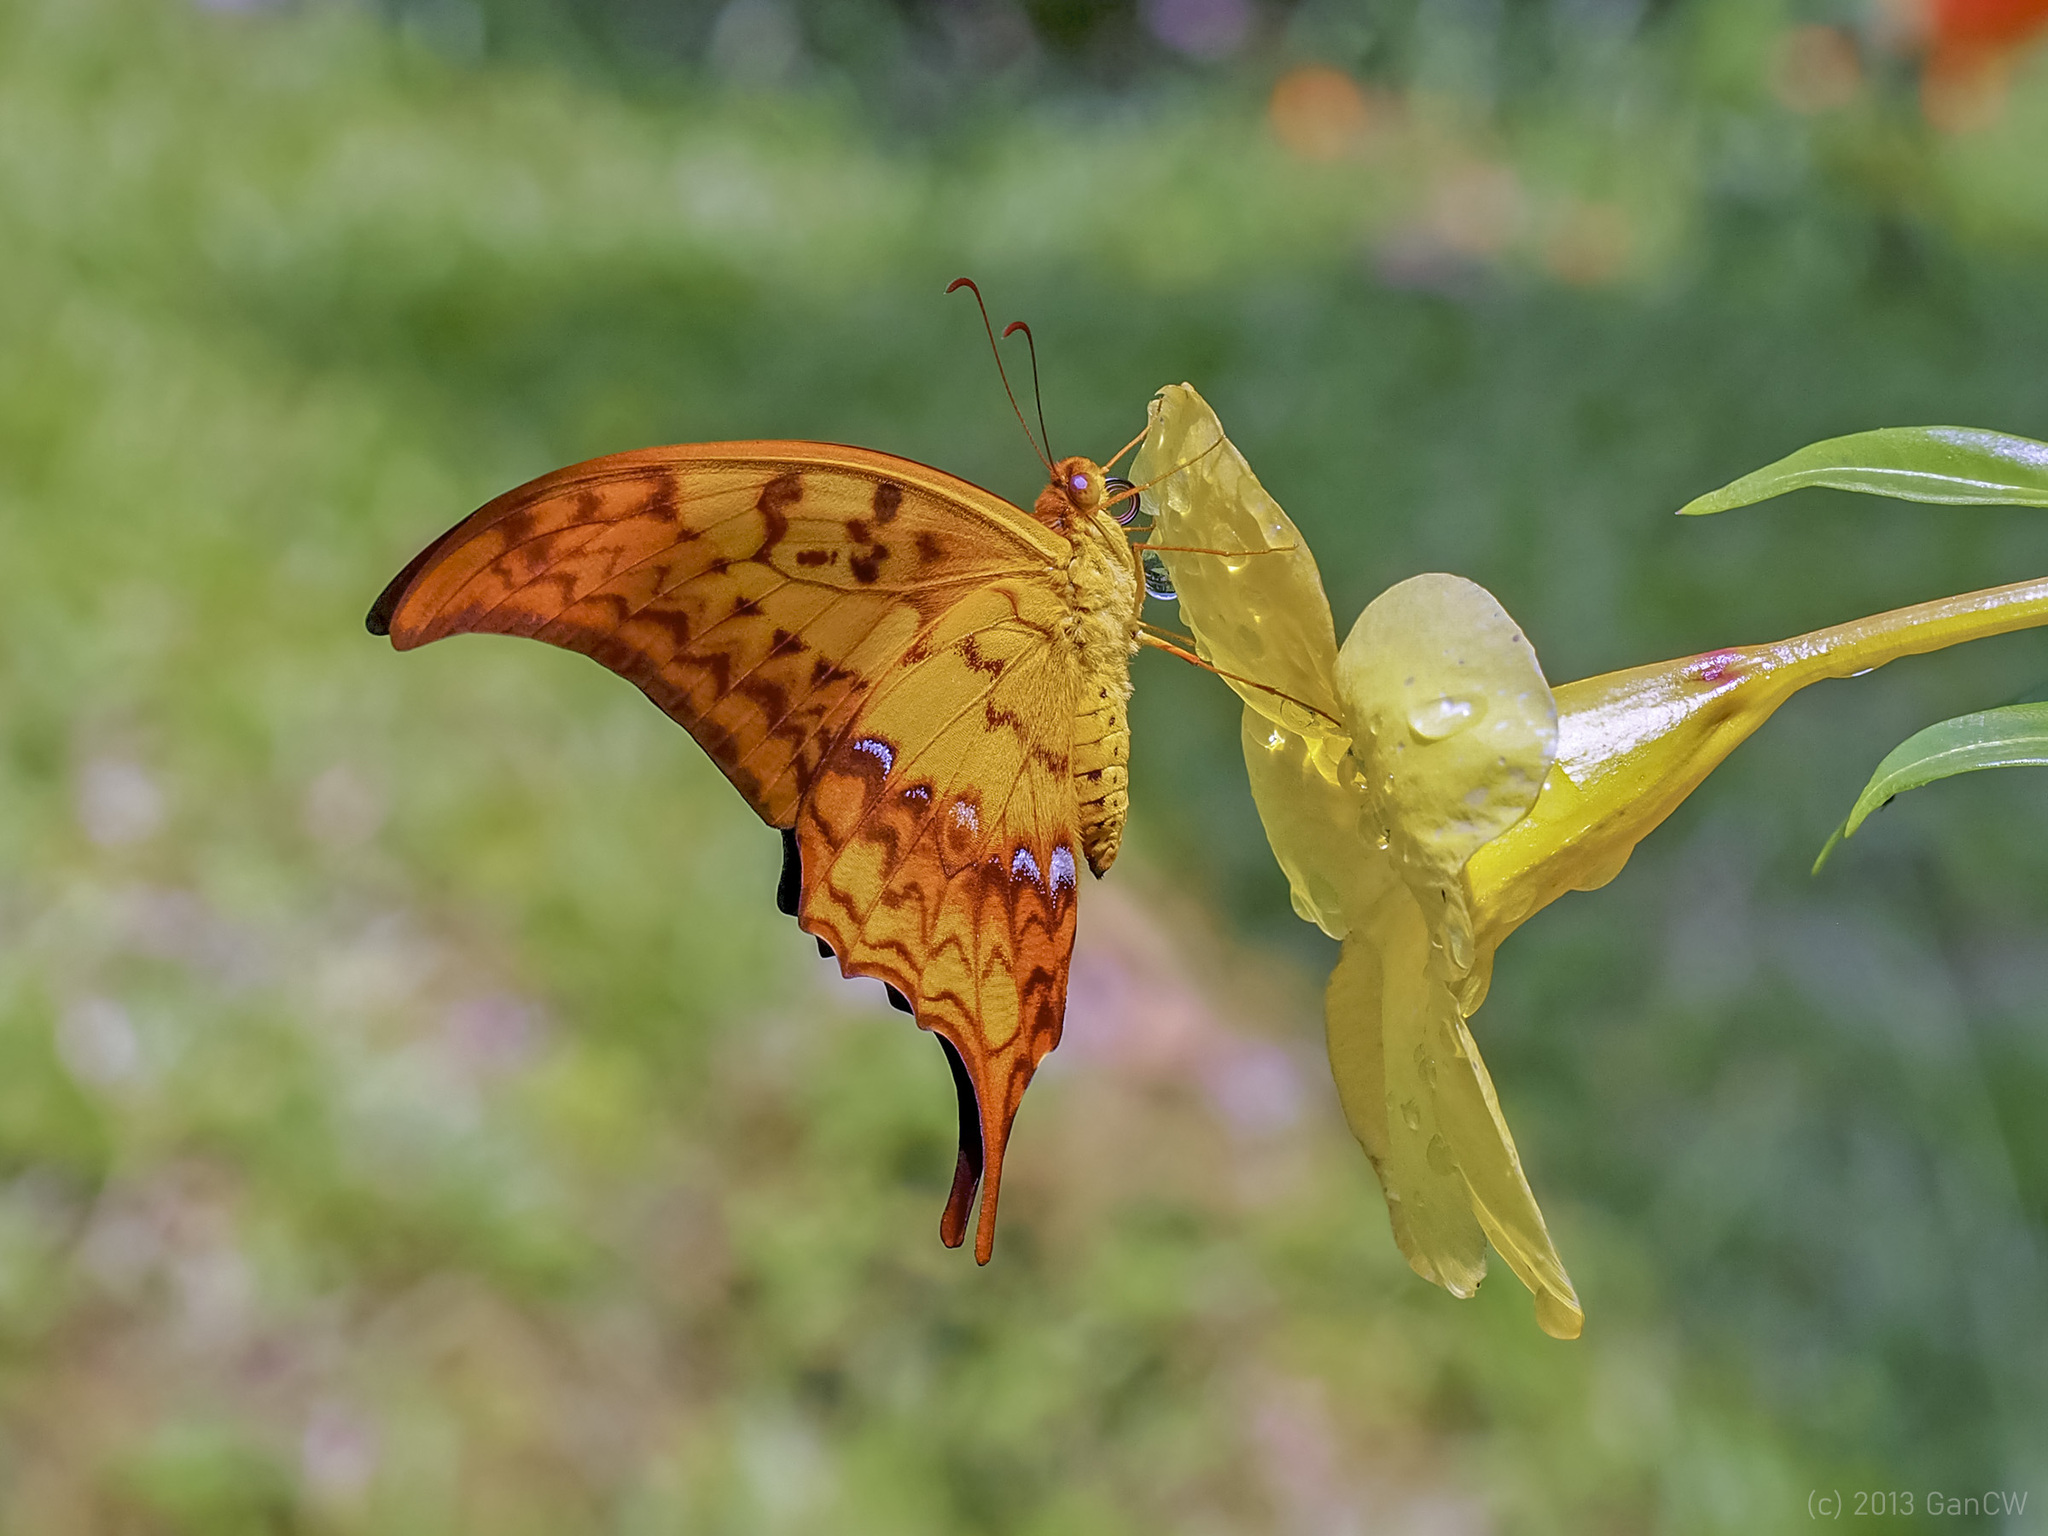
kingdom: Animalia
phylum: Arthropoda
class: Insecta
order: Lepidoptera
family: Papilionidae
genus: Meandrusa
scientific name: Meandrusa payeni
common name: Outlet sword
